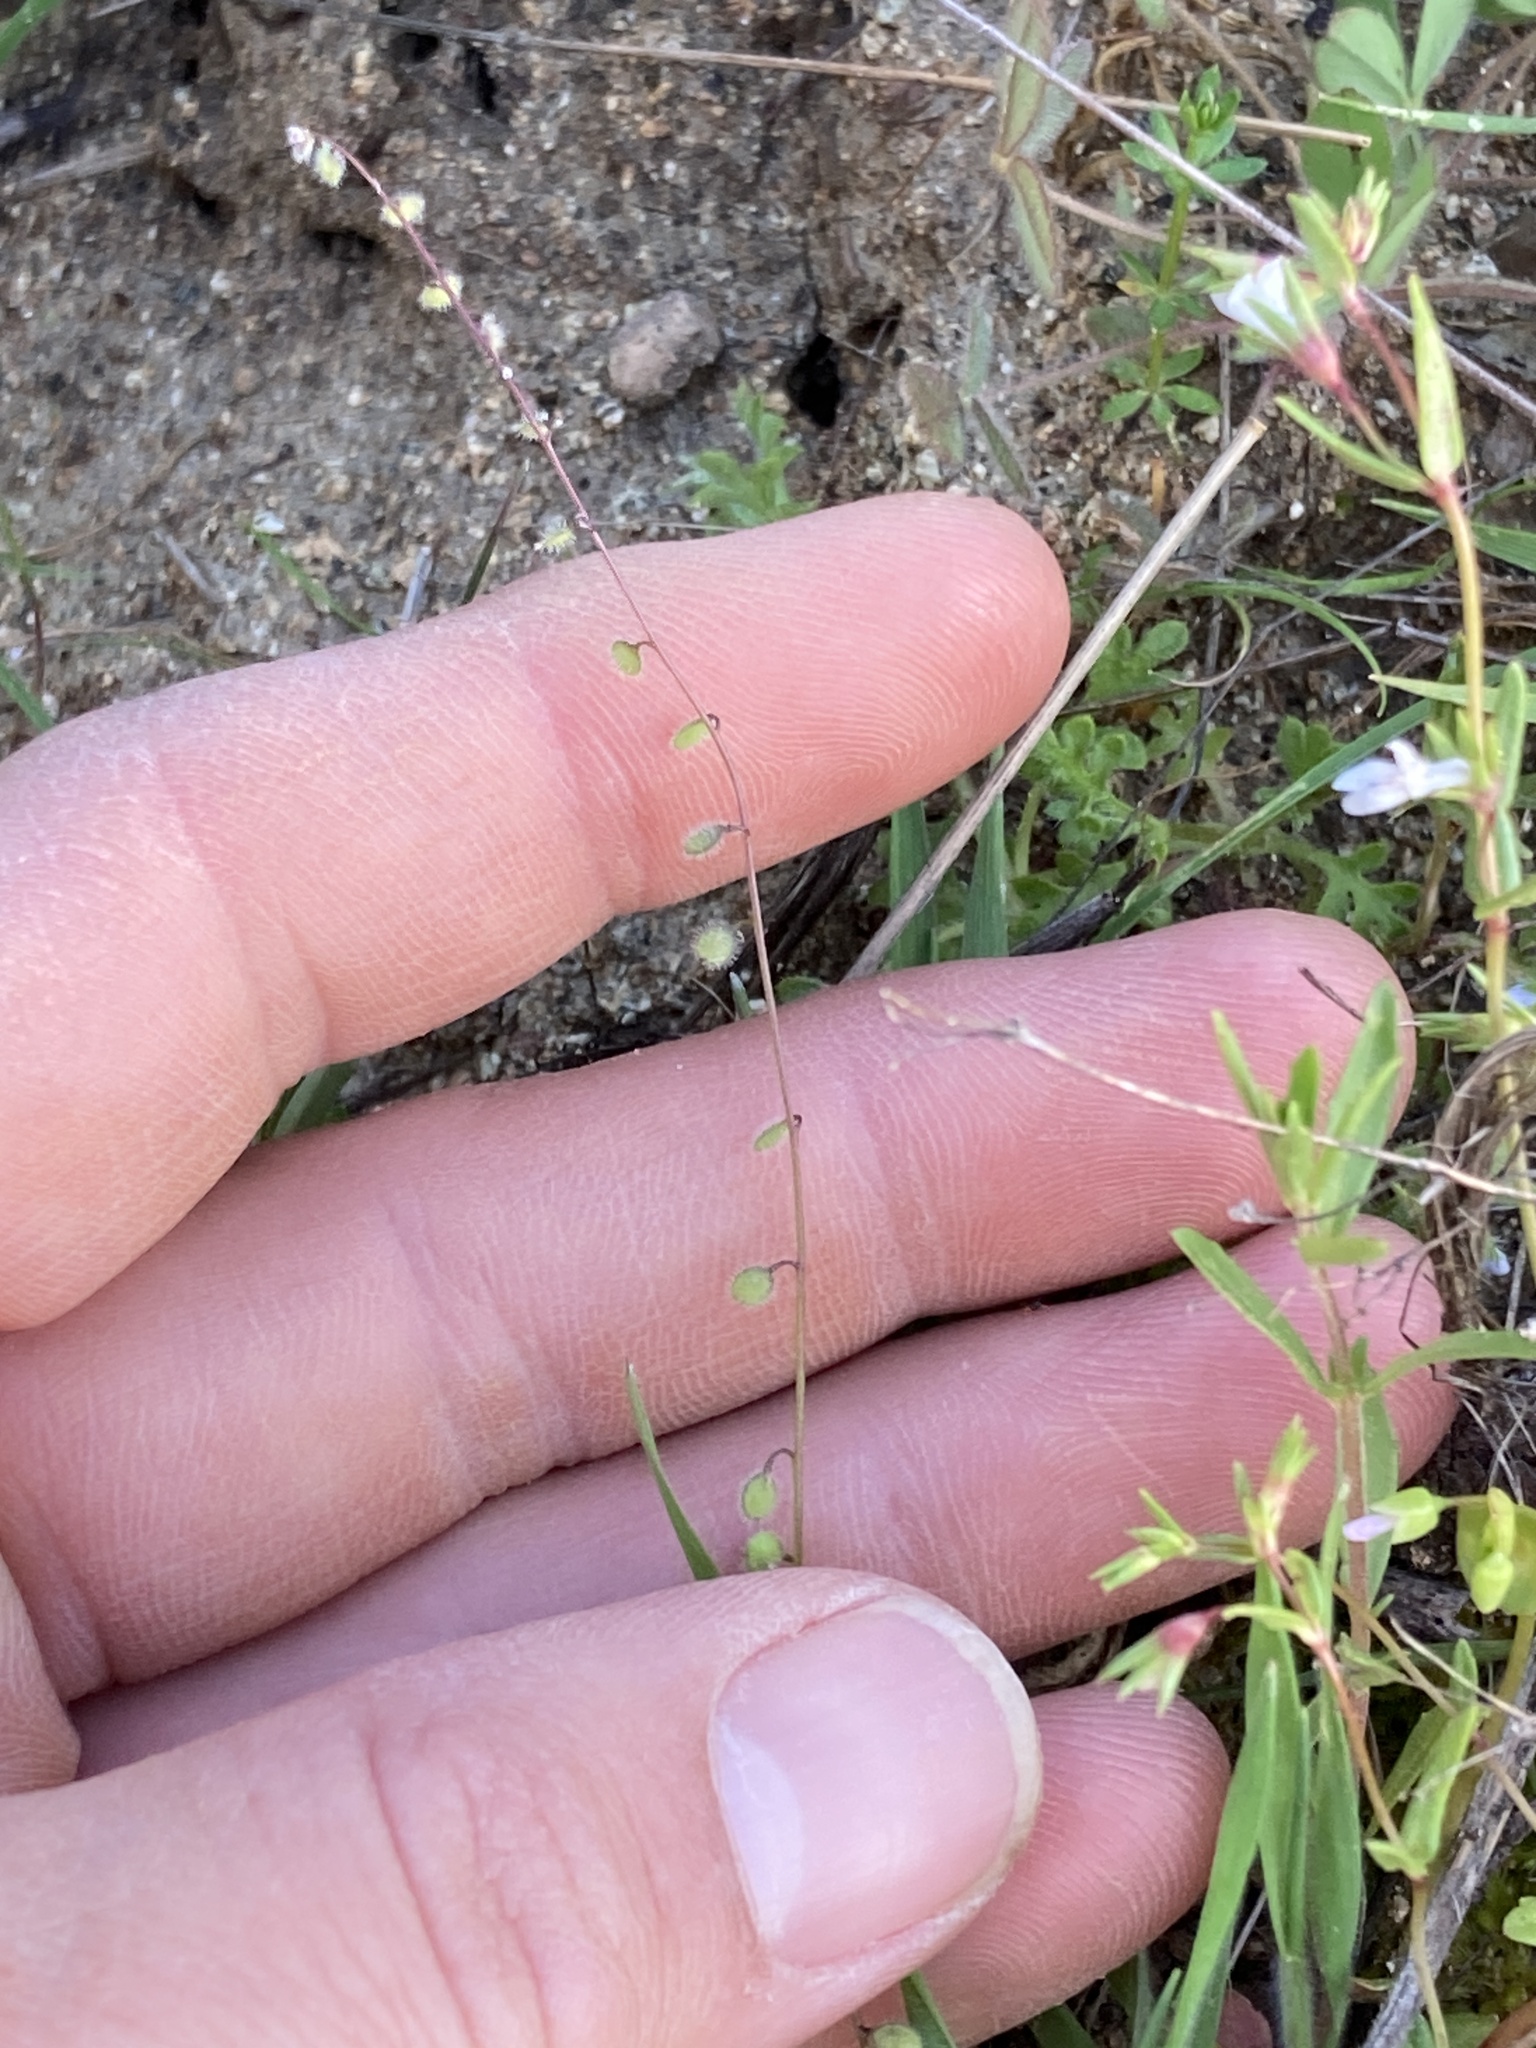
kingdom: Plantae
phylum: Tracheophyta
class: Magnoliopsida
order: Brassicales
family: Brassicaceae
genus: Athysanus
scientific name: Athysanus pusillus
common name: Common sandweed
